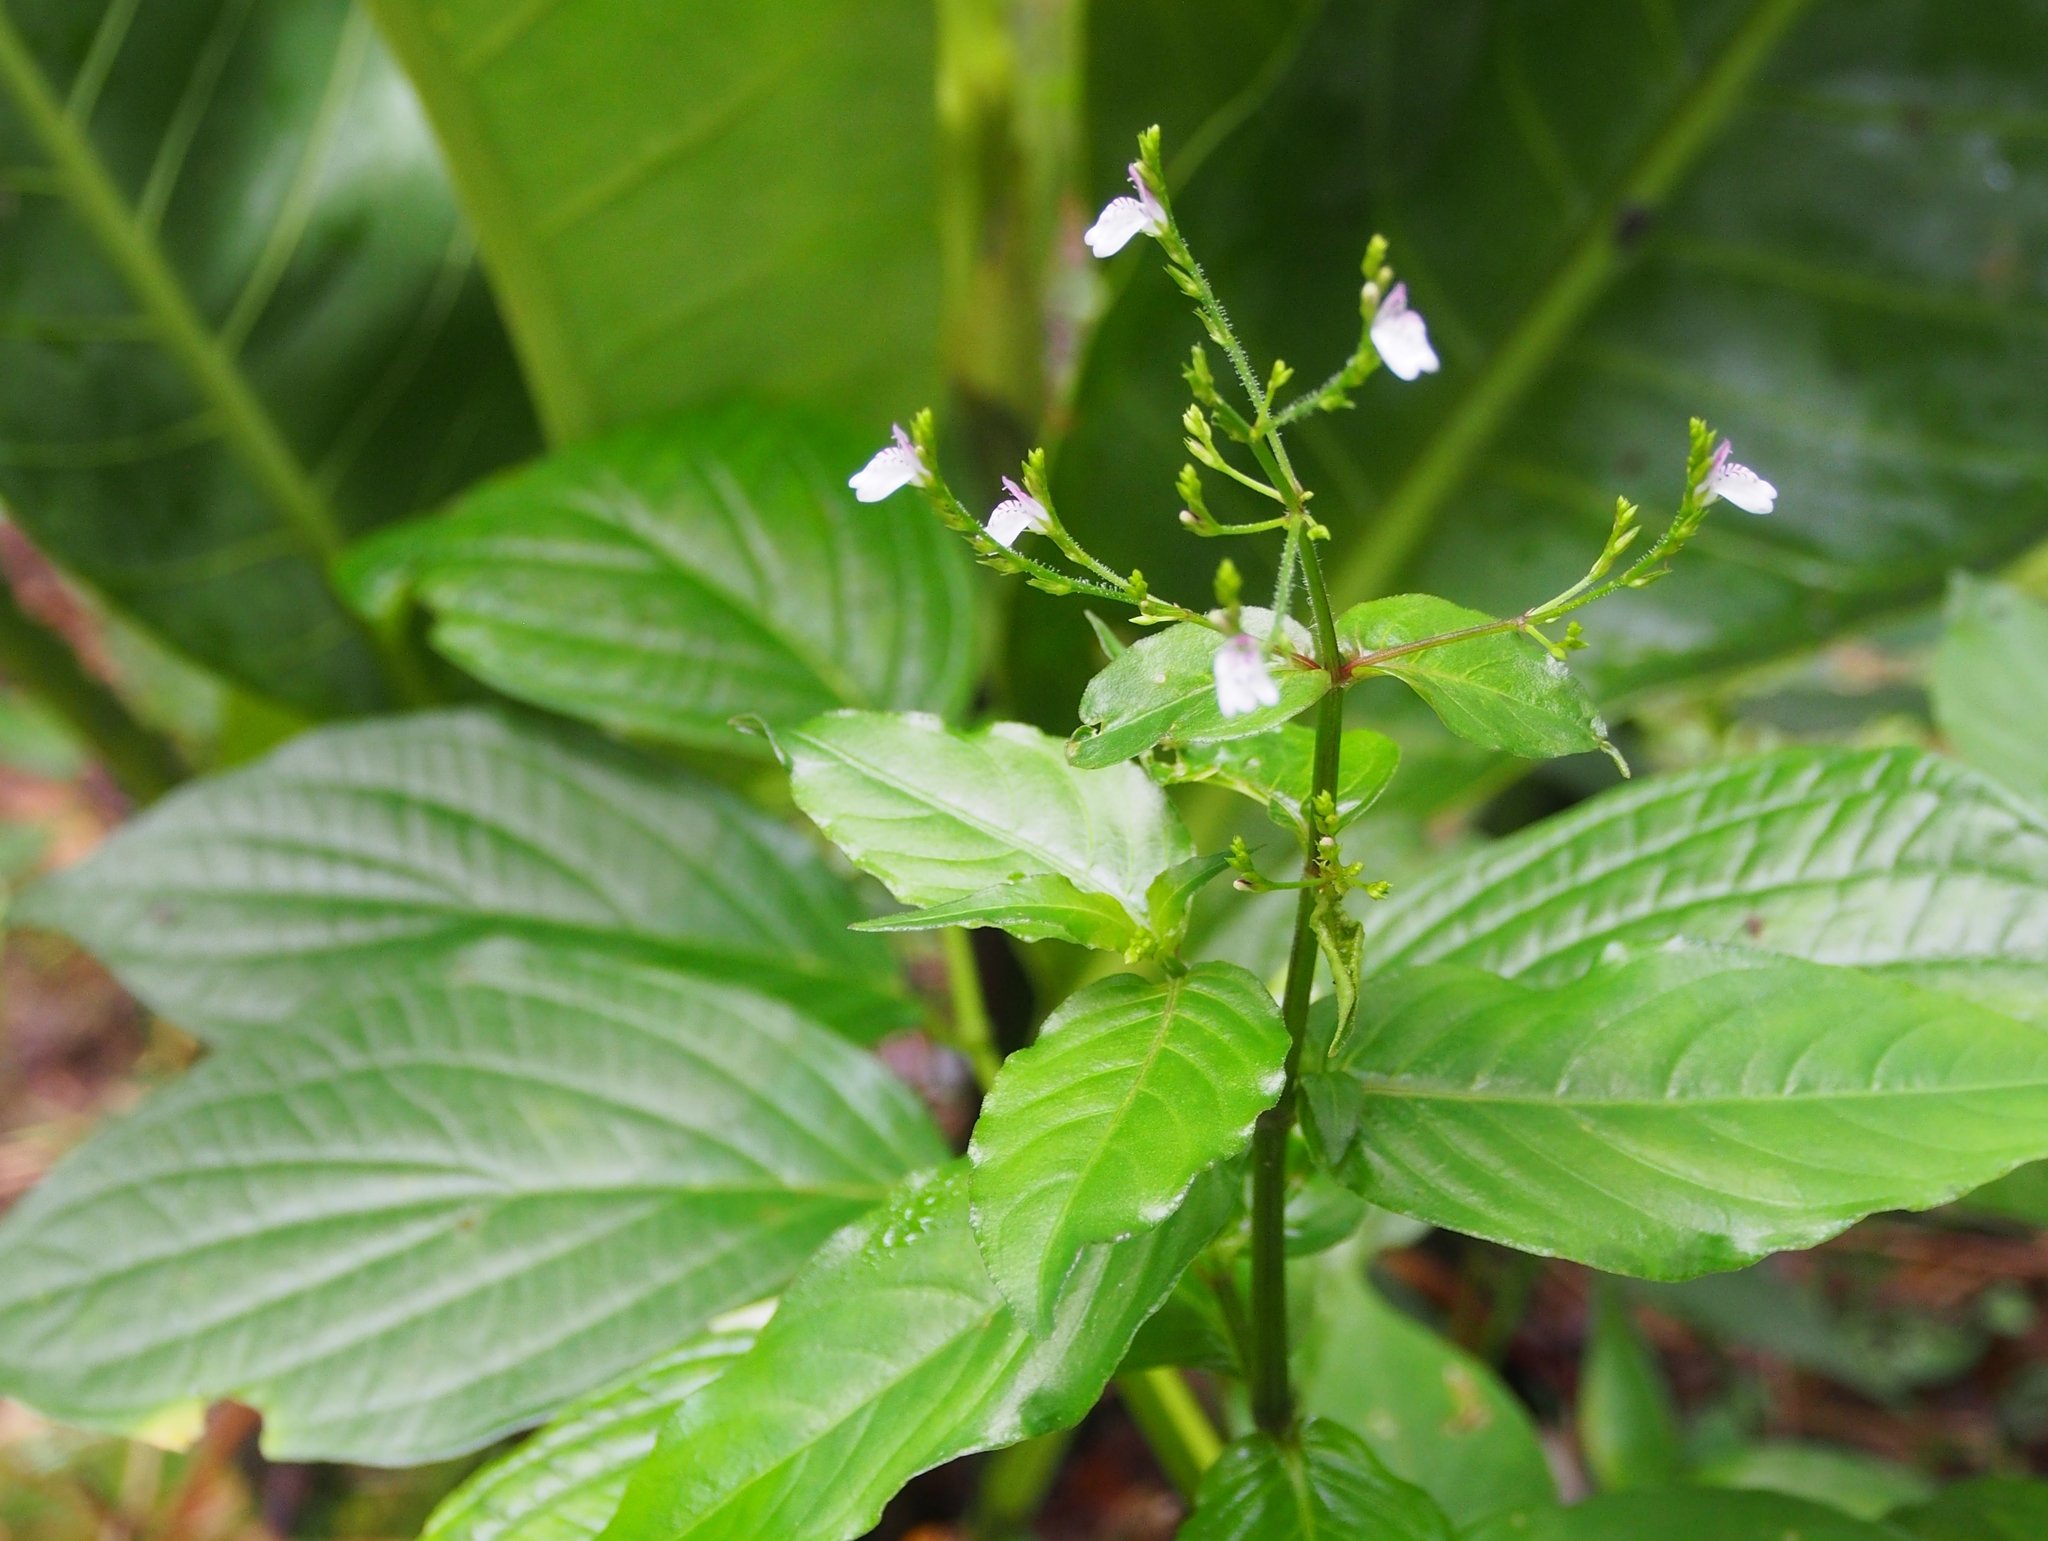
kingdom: Plantae
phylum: Tracheophyta
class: Magnoliopsida
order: Lamiales
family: Acanthaceae
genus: Justicia
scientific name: Justicia comata
